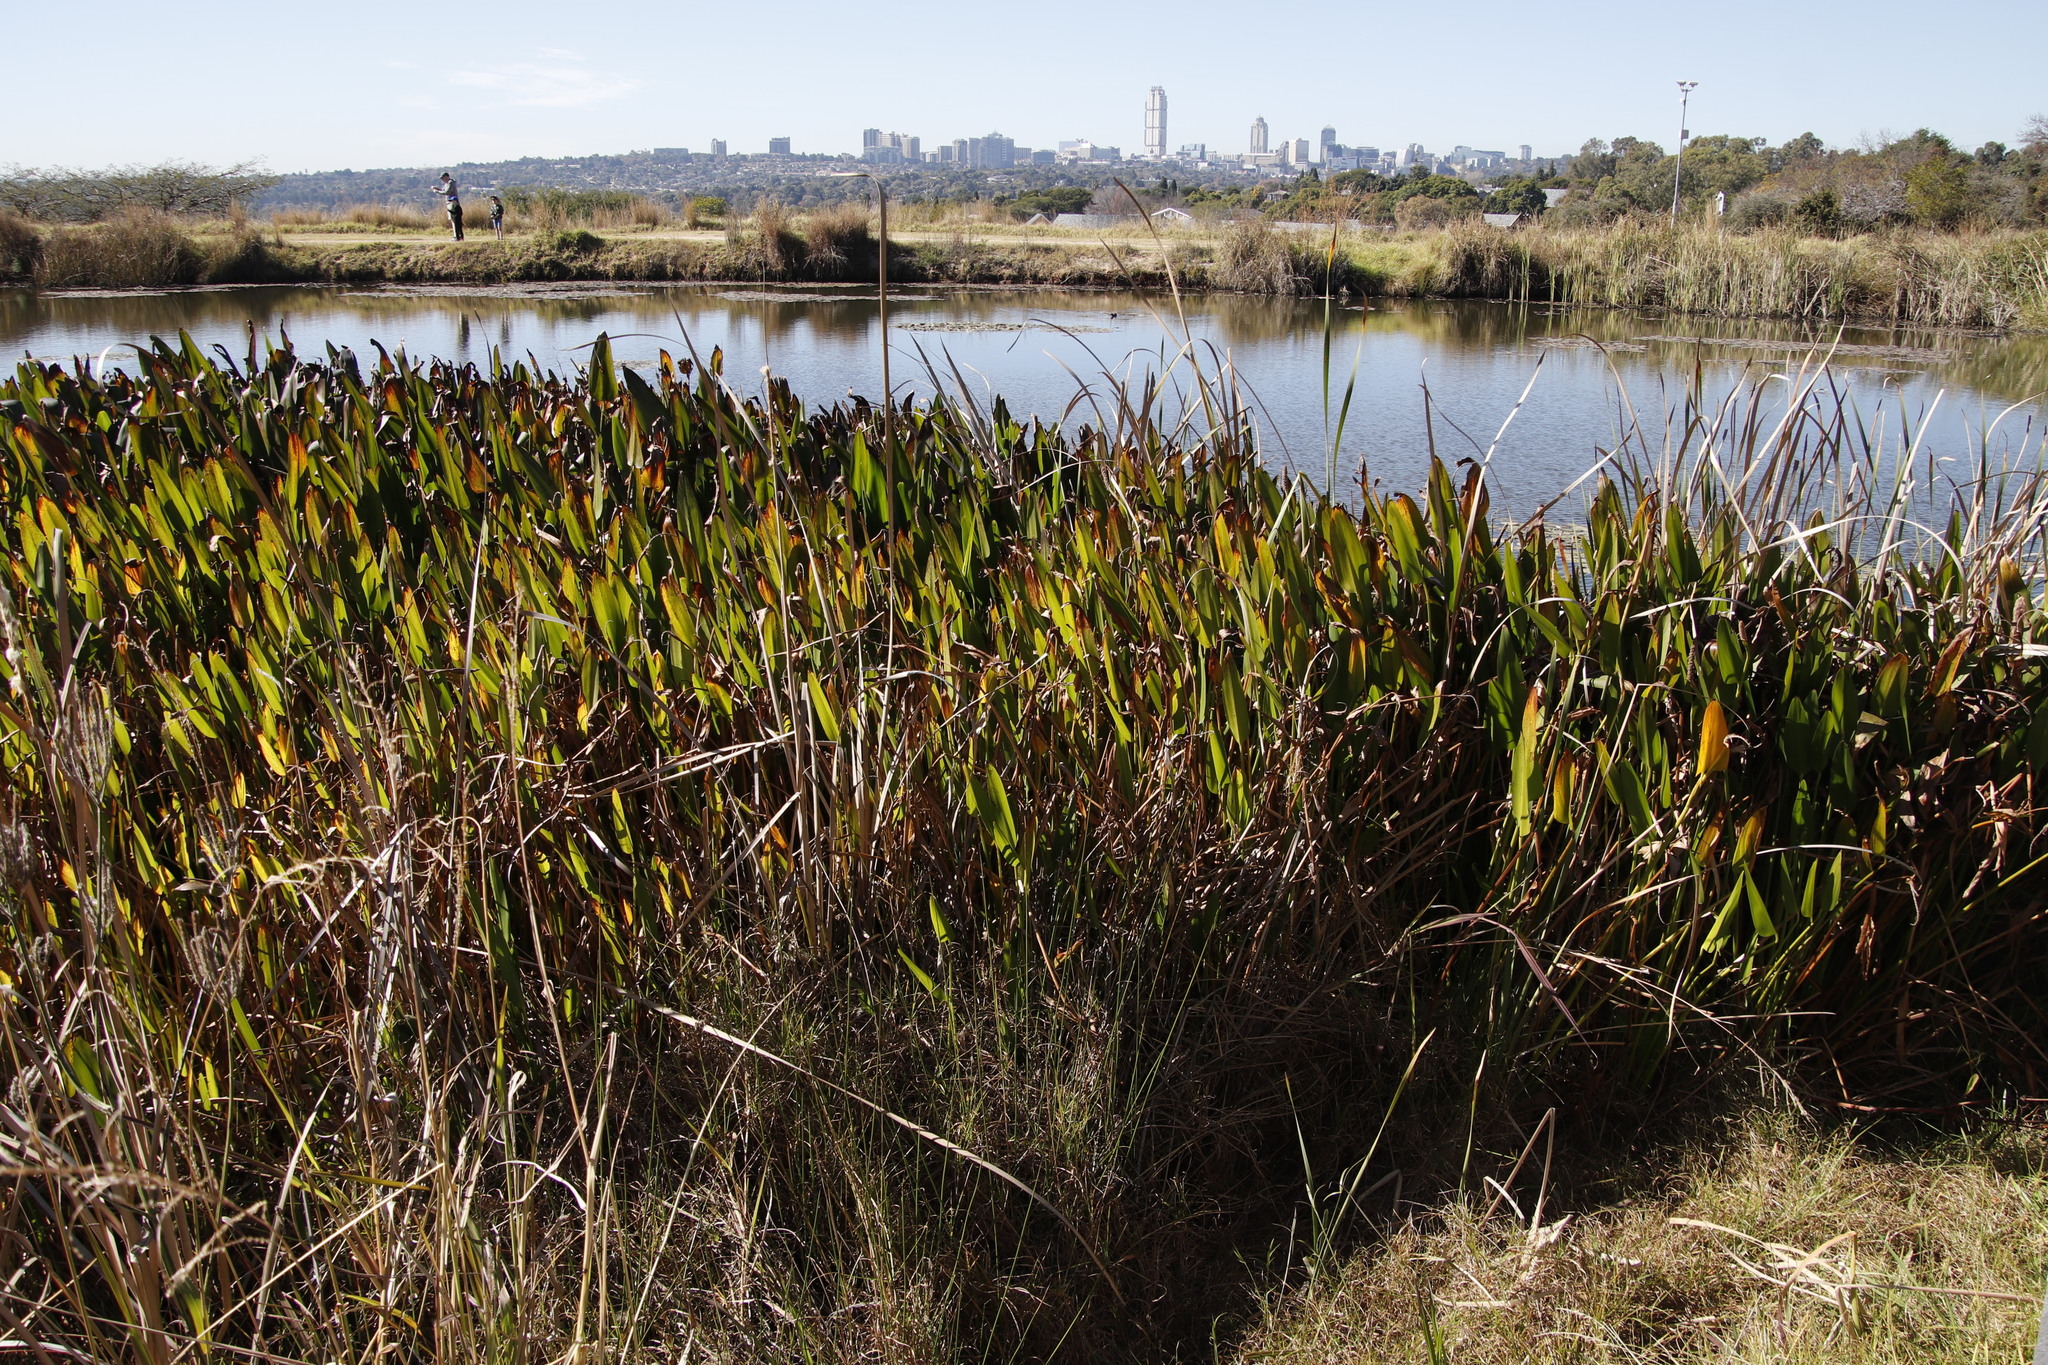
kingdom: Plantae
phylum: Tracheophyta
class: Liliopsida
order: Commelinales
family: Pontederiaceae
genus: Pontederia
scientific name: Pontederia cordata
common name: Pickerelweed
